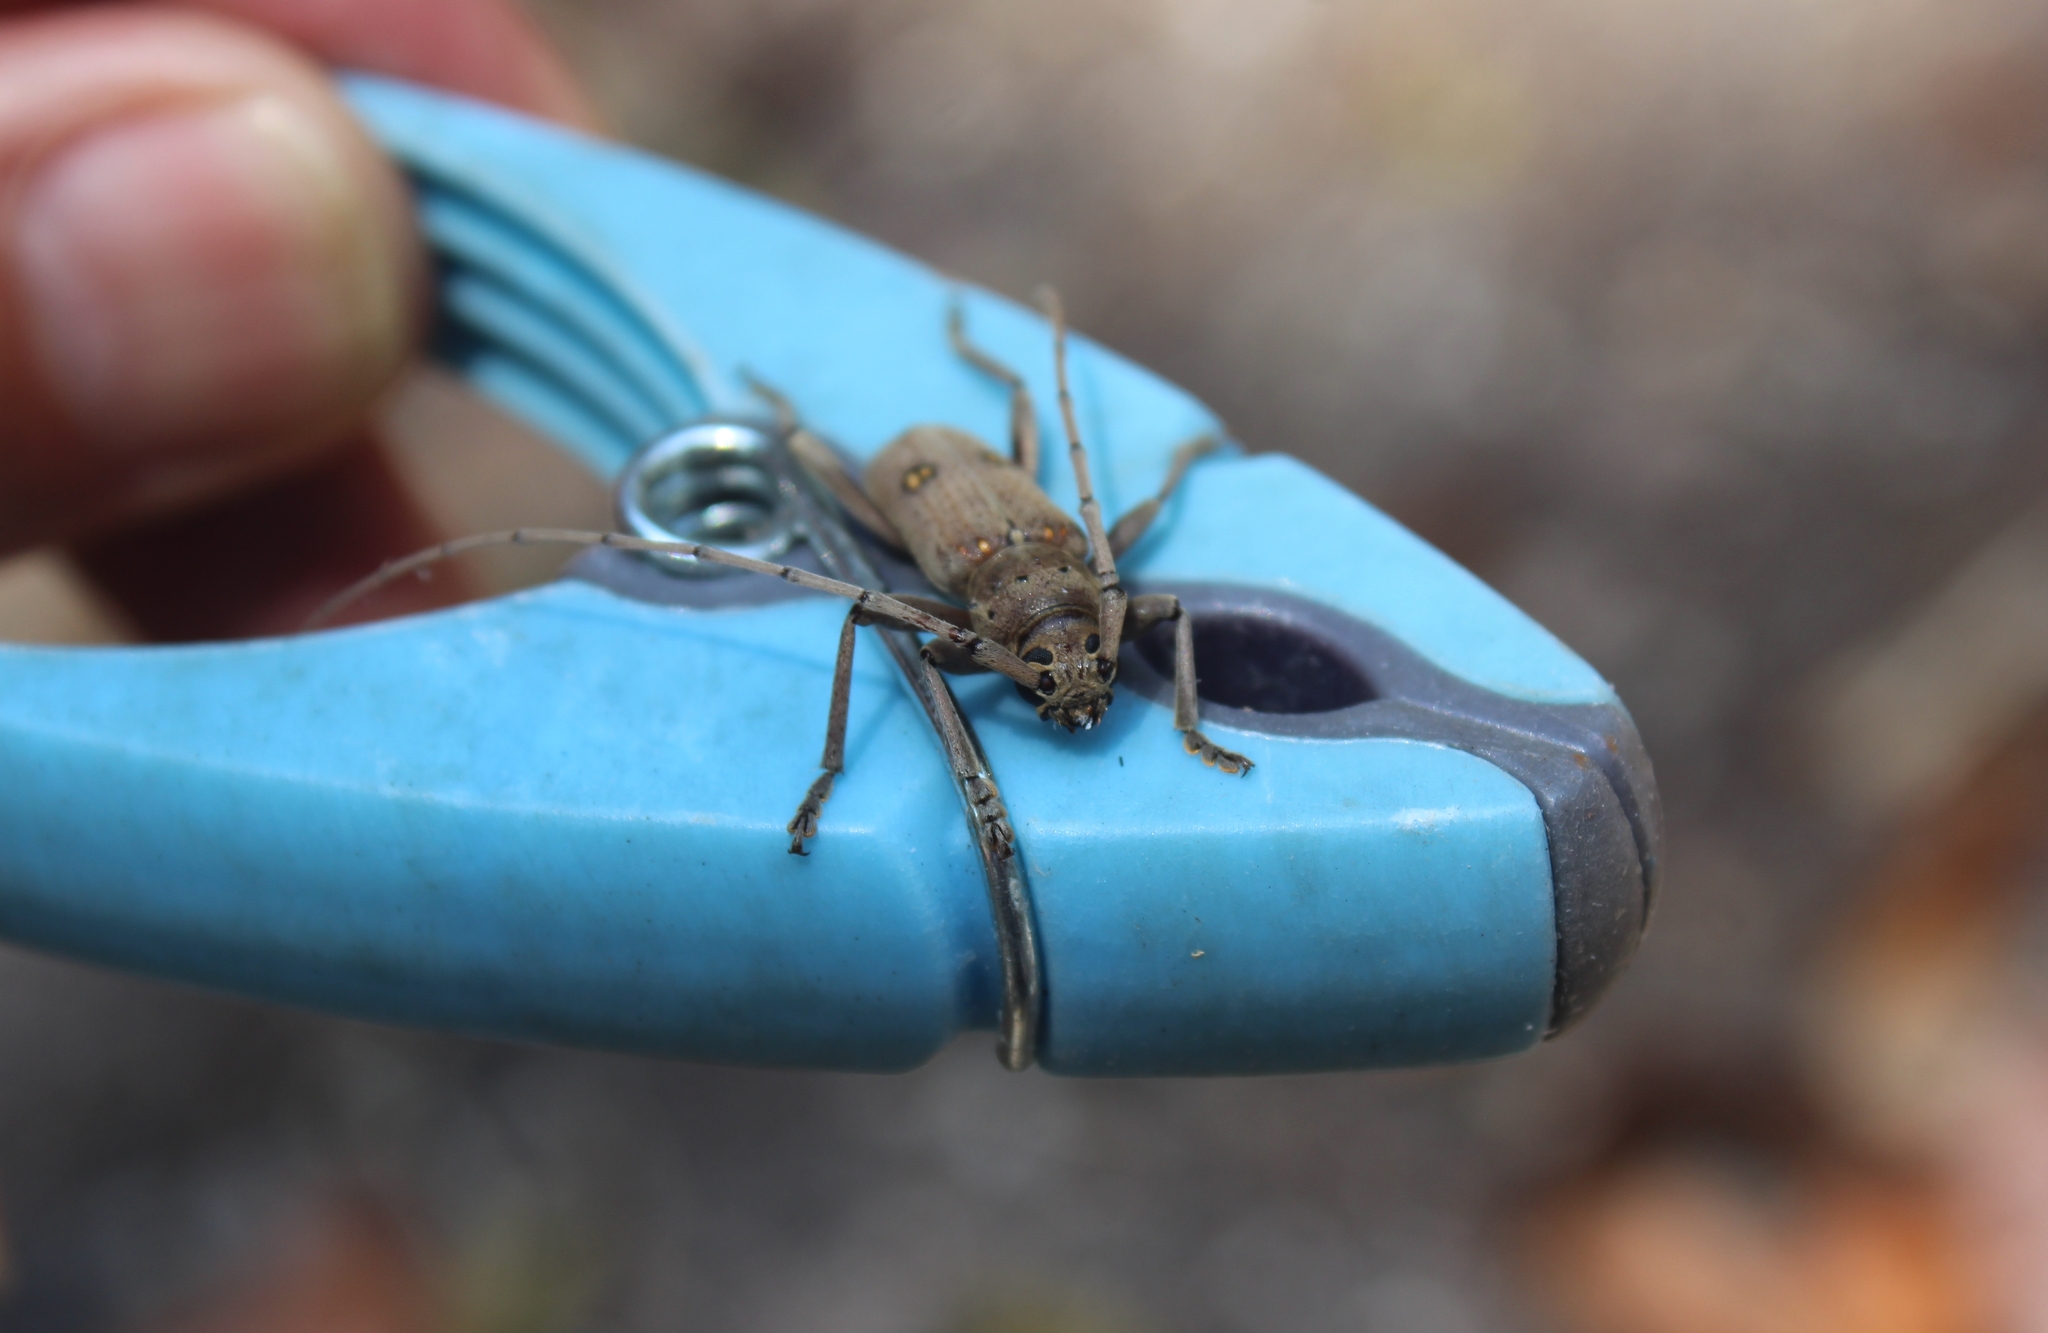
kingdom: Animalia
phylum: Arthropoda
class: Insecta
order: Coleoptera
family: Cerambycidae
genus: Eburia
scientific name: Eburia porulosa
